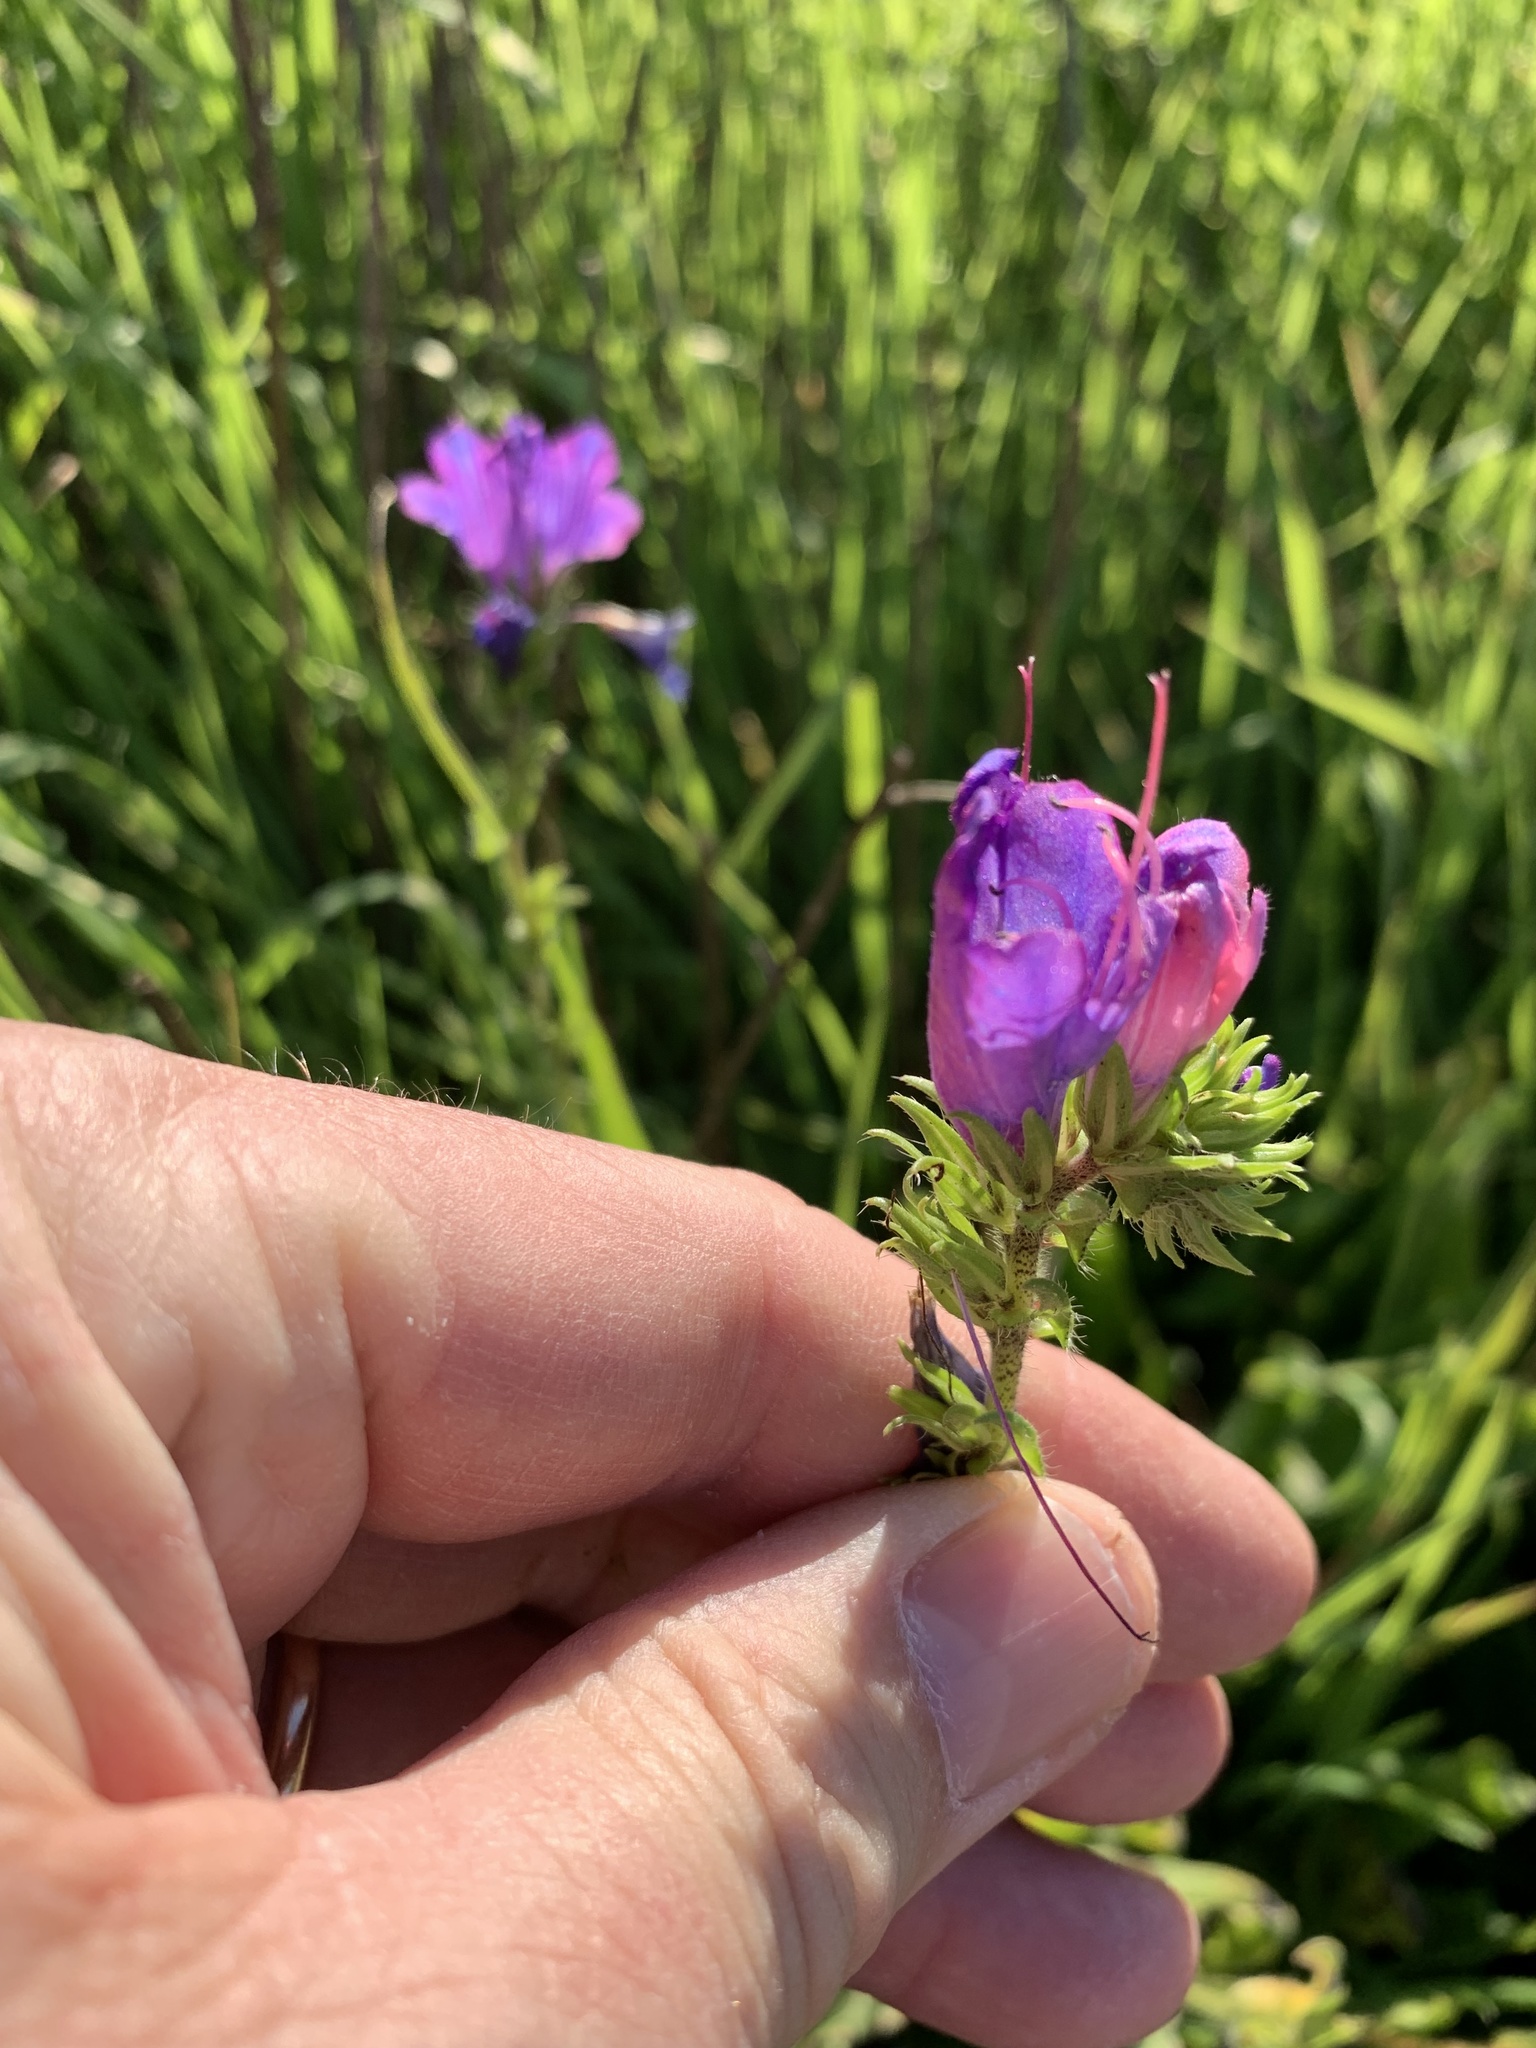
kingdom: Plantae
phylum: Tracheophyta
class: Magnoliopsida
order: Boraginales
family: Boraginaceae
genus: Echium
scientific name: Echium plantagineum
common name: Purple viper's-bugloss
